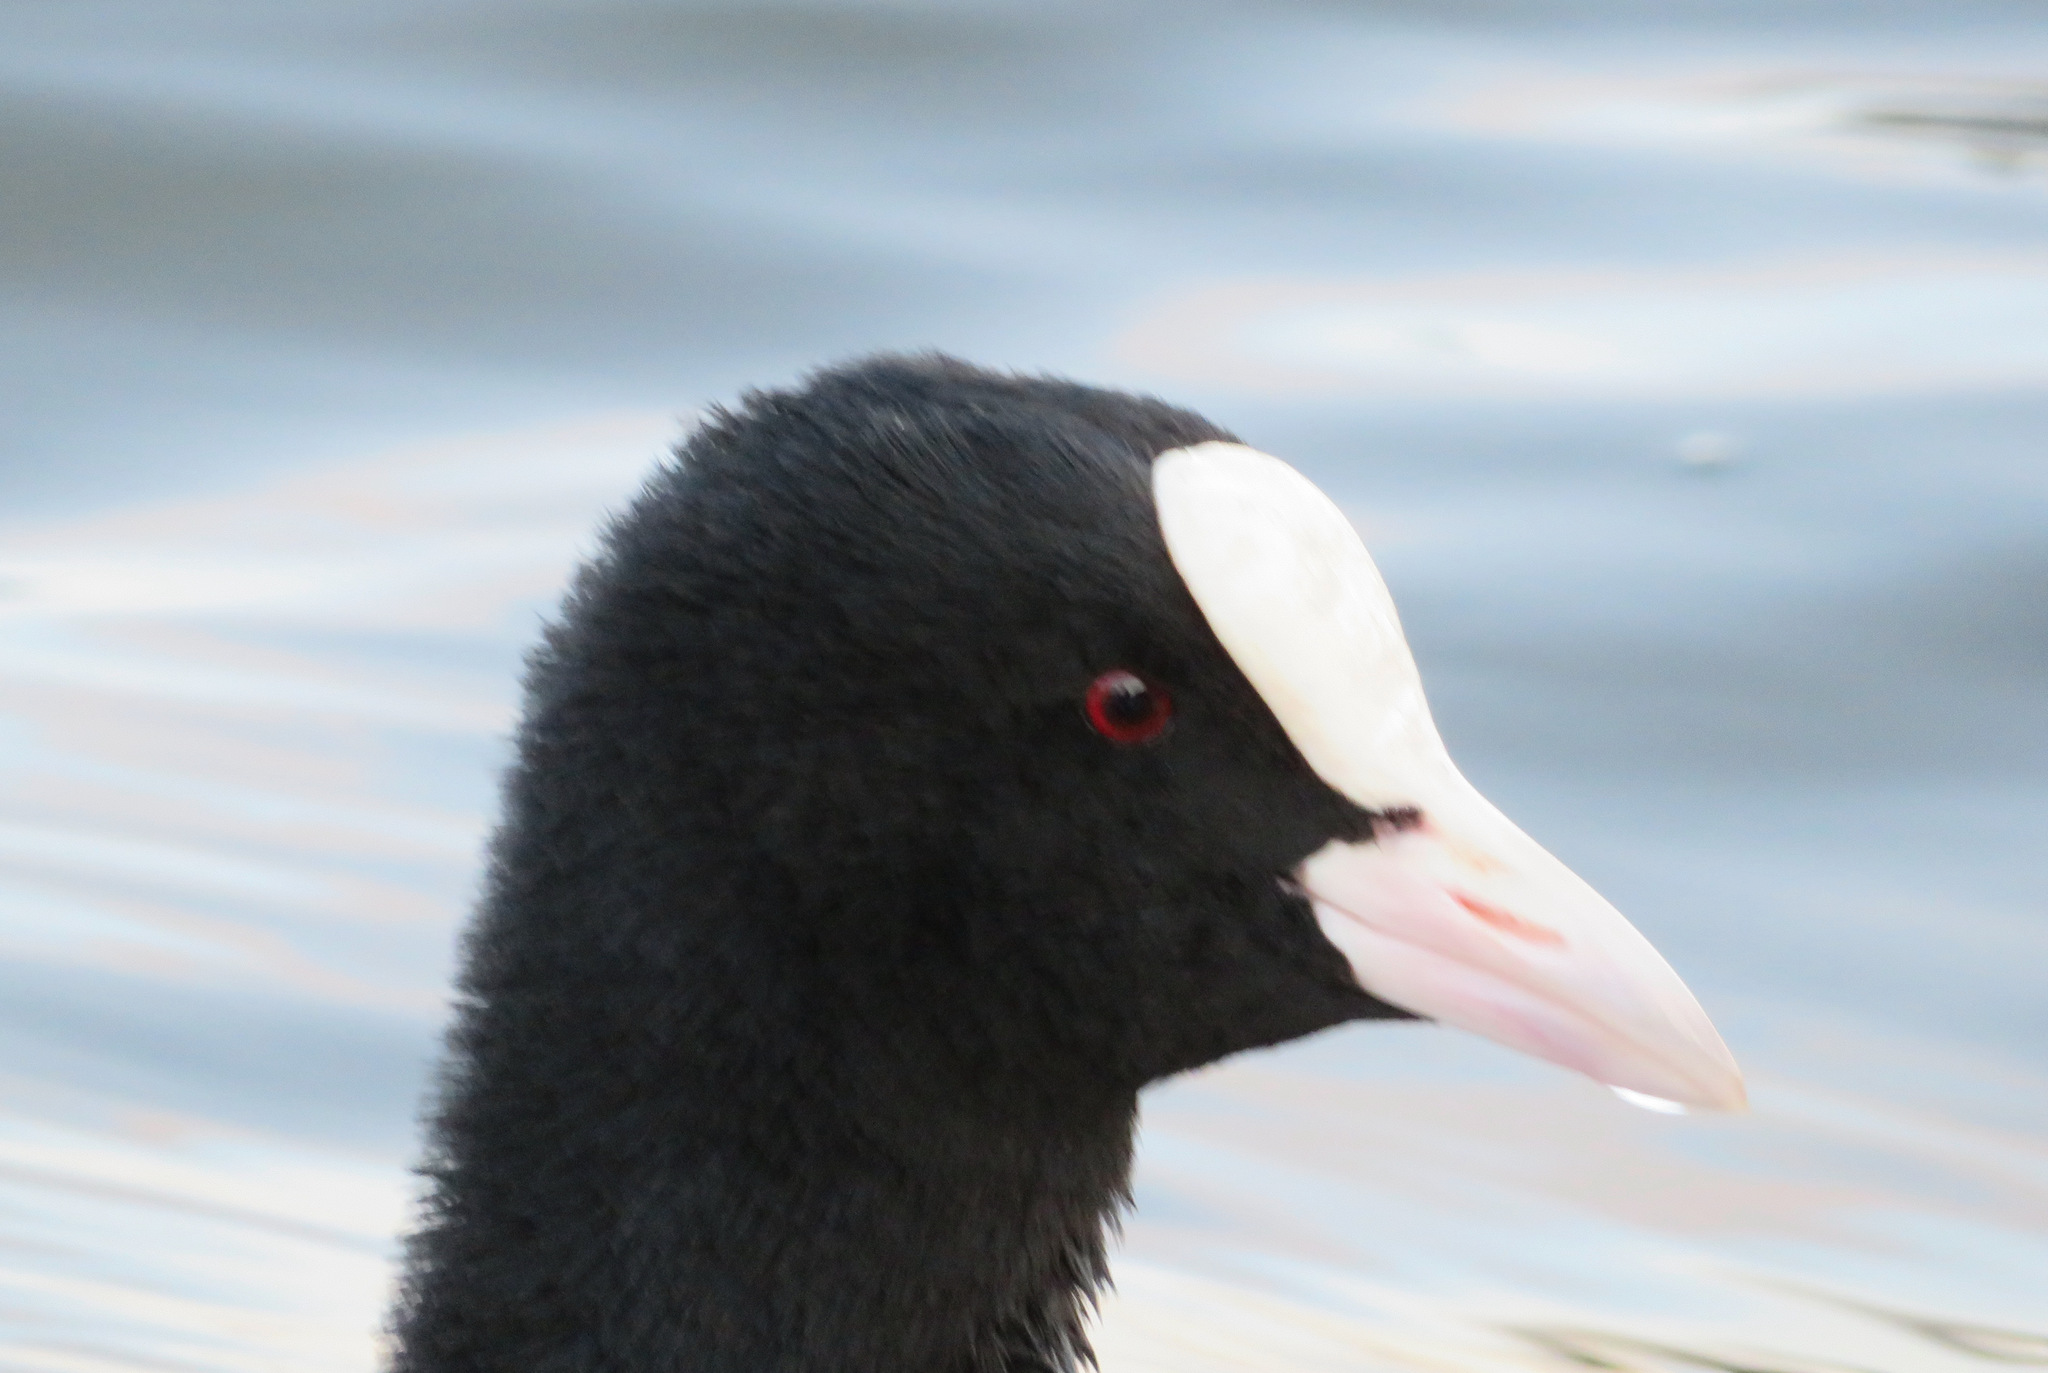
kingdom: Animalia
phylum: Chordata
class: Aves
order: Gruiformes
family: Rallidae
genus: Fulica
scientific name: Fulica atra
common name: Eurasian coot
